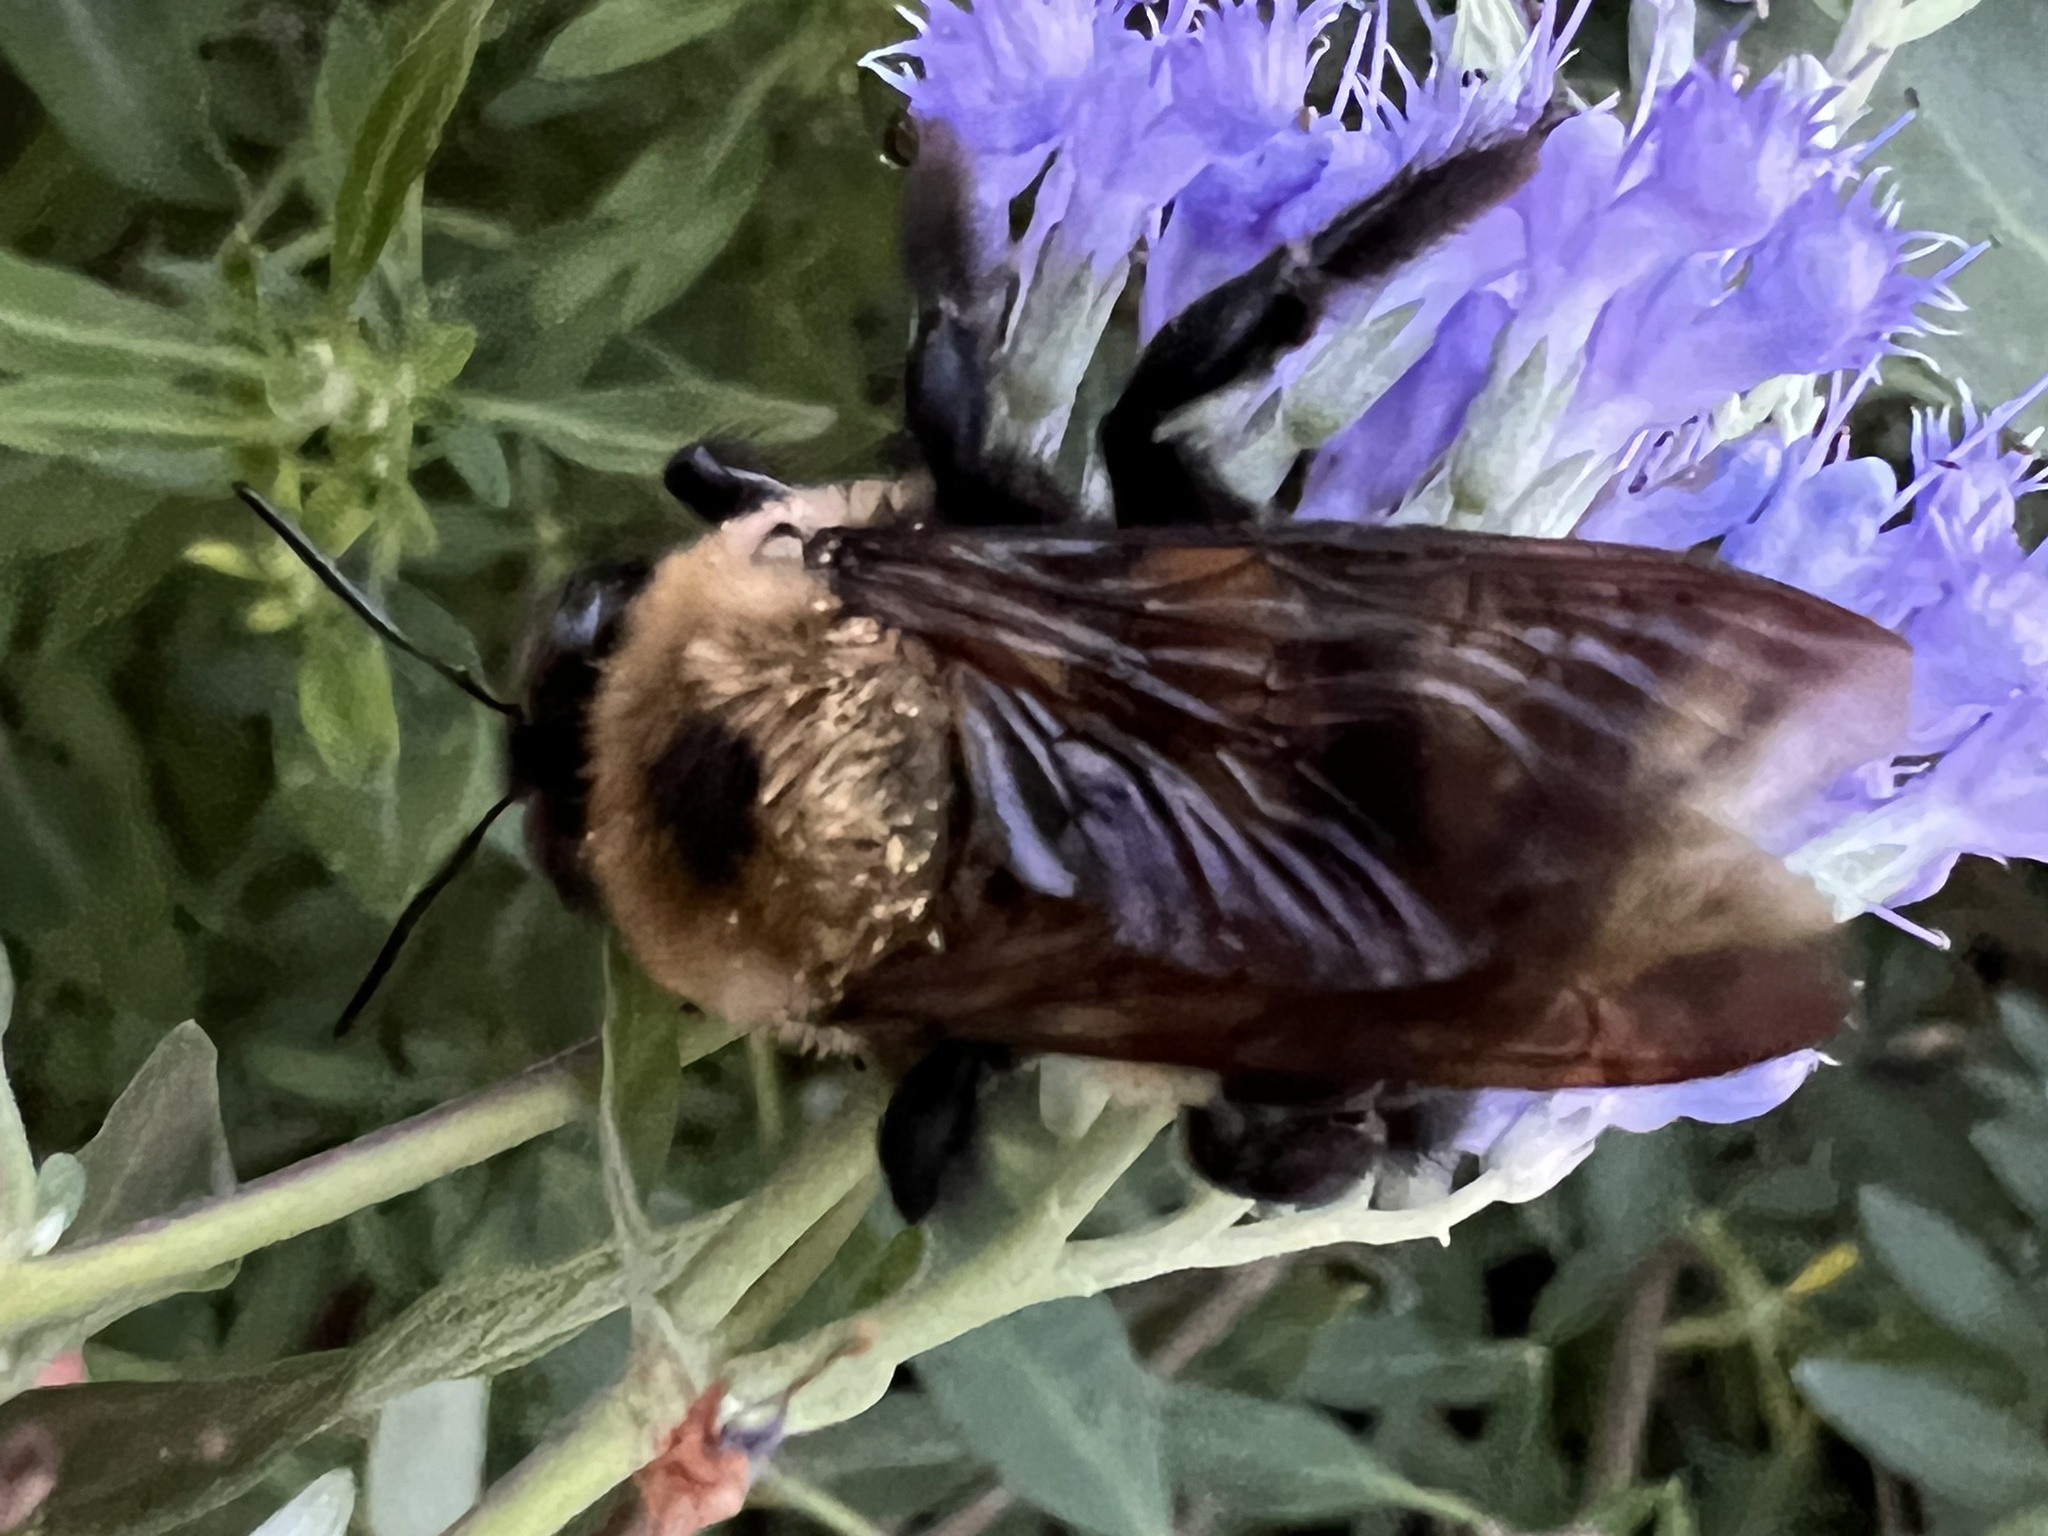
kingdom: Animalia
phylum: Arthropoda
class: Insecta
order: Hymenoptera
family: Apidae
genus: Xylocopa
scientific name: Xylocopa virginica
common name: Carpenter bee
